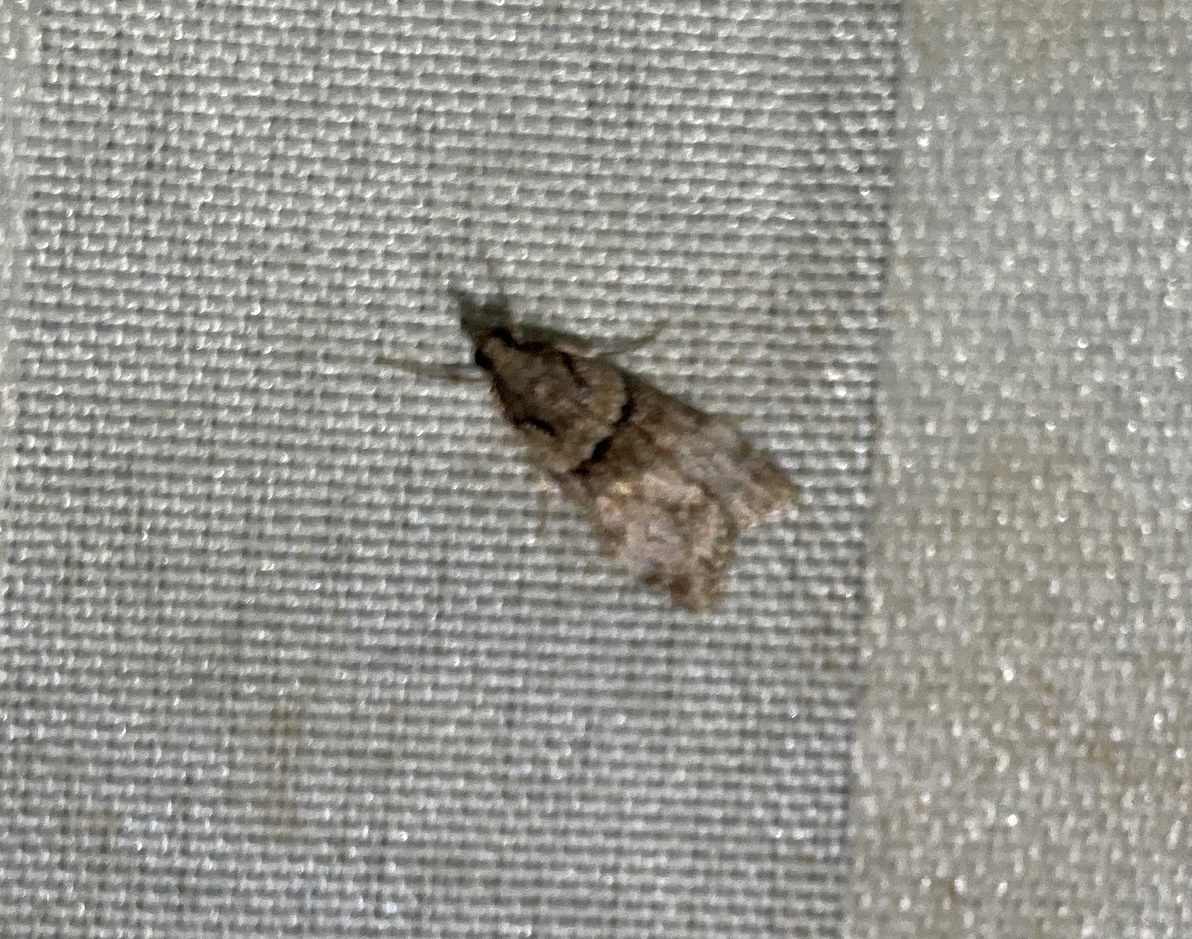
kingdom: Animalia
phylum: Arthropoda
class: Insecta
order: Lepidoptera
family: Crambidae
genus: Eudonia
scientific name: Eudonia colpota
